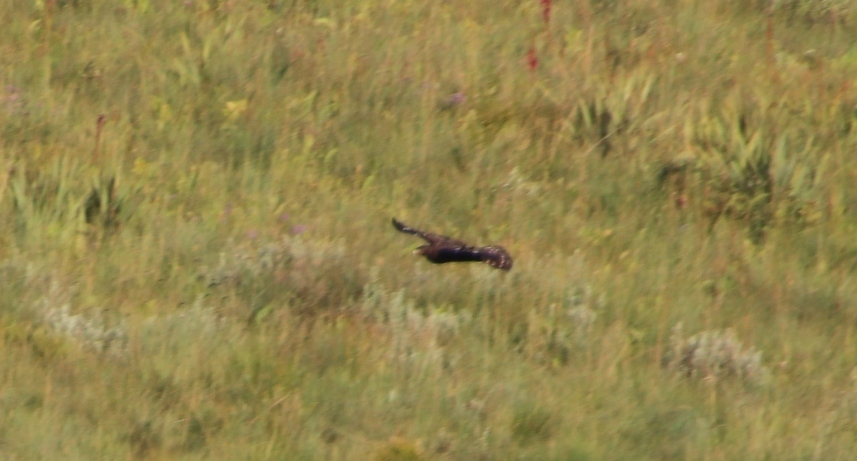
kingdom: Animalia
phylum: Chordata
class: Aves
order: Accipitriformes
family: Accipitridae
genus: Lophaetus
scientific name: Lophaetus occipitalis
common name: Long-crested eagle
